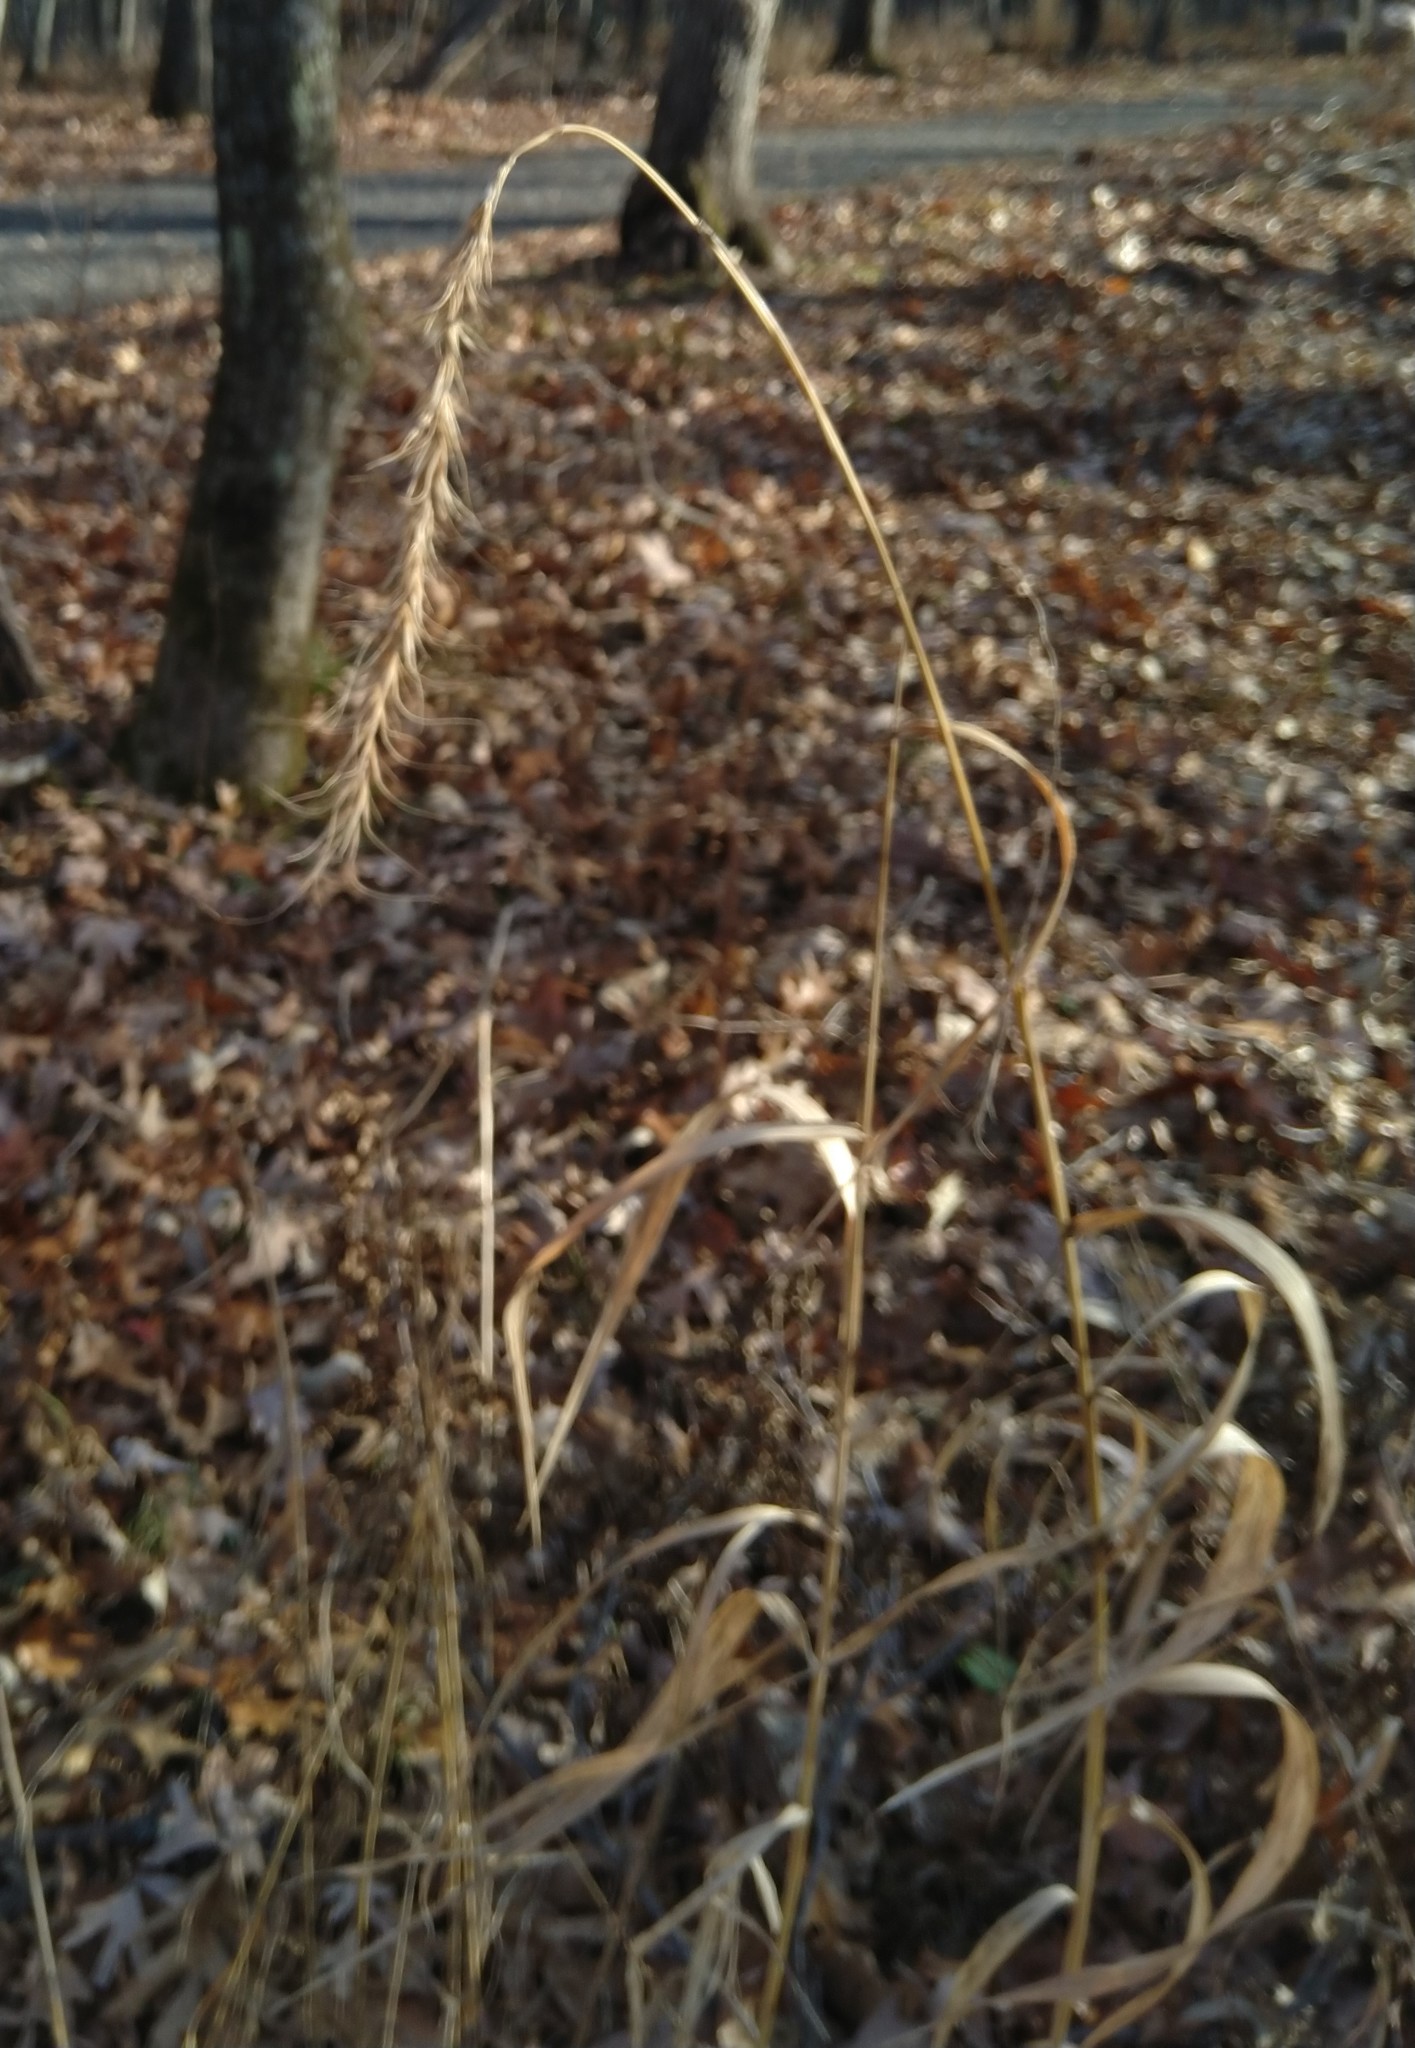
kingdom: Plantae
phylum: Tracheophyta
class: Liliopsida
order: Poales
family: Poaceae
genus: Elymus
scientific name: Elymus canadensis
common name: Canada wild rye
